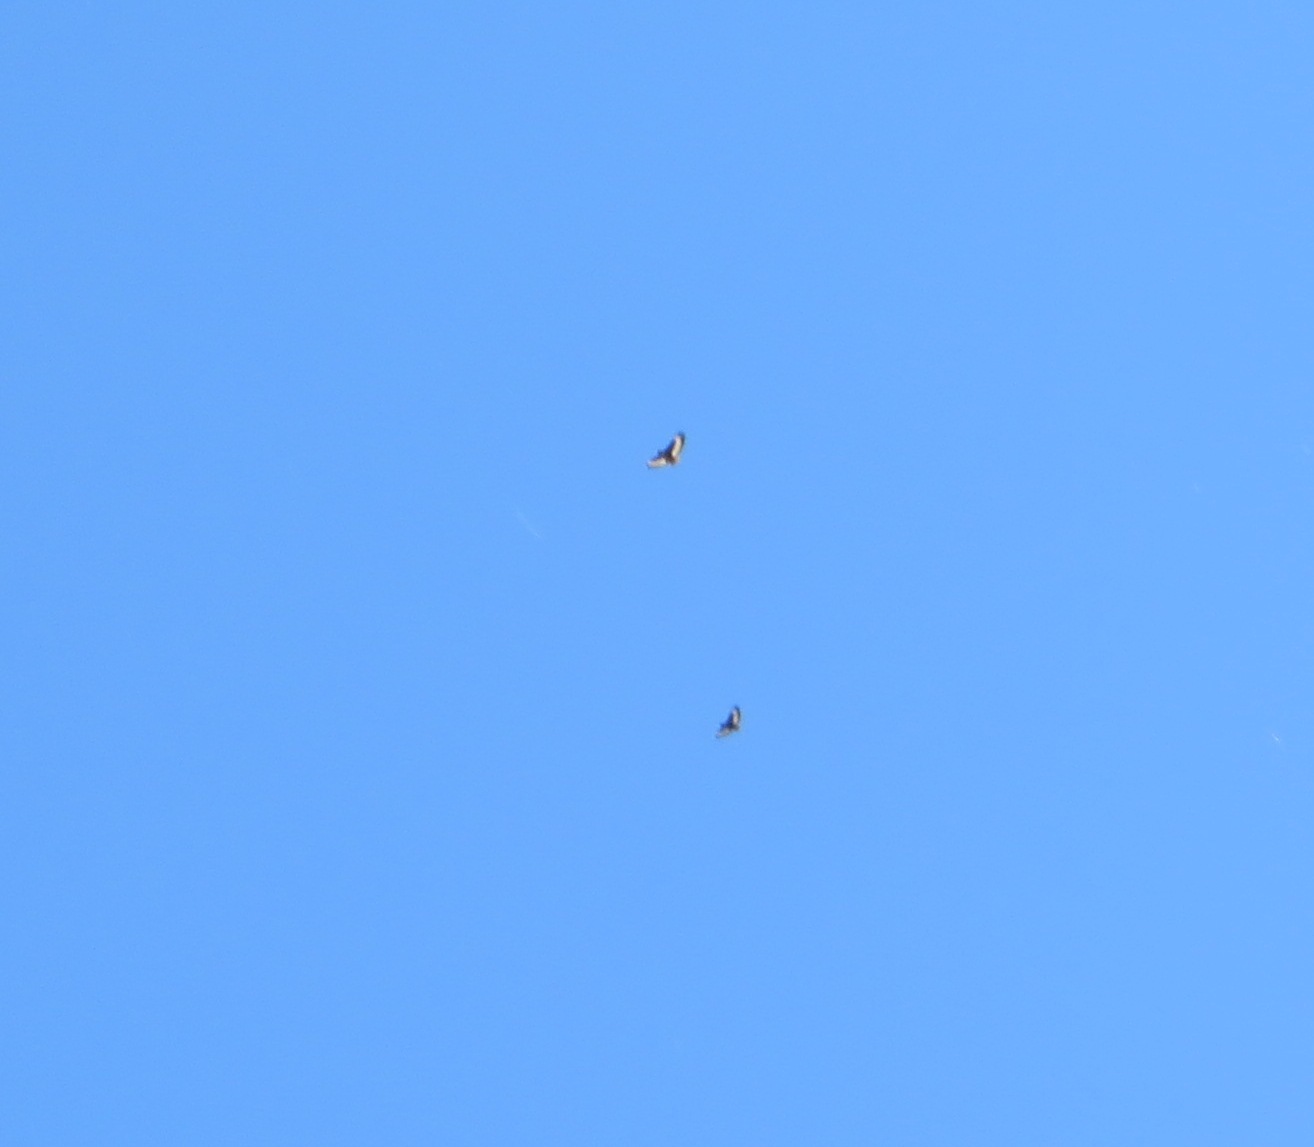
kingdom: Animalia
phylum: Chordata
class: Aves
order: Accipitriformes
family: Accipitridae
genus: Buteo
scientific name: Buteo rufofuscus
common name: Jackal buzzard
